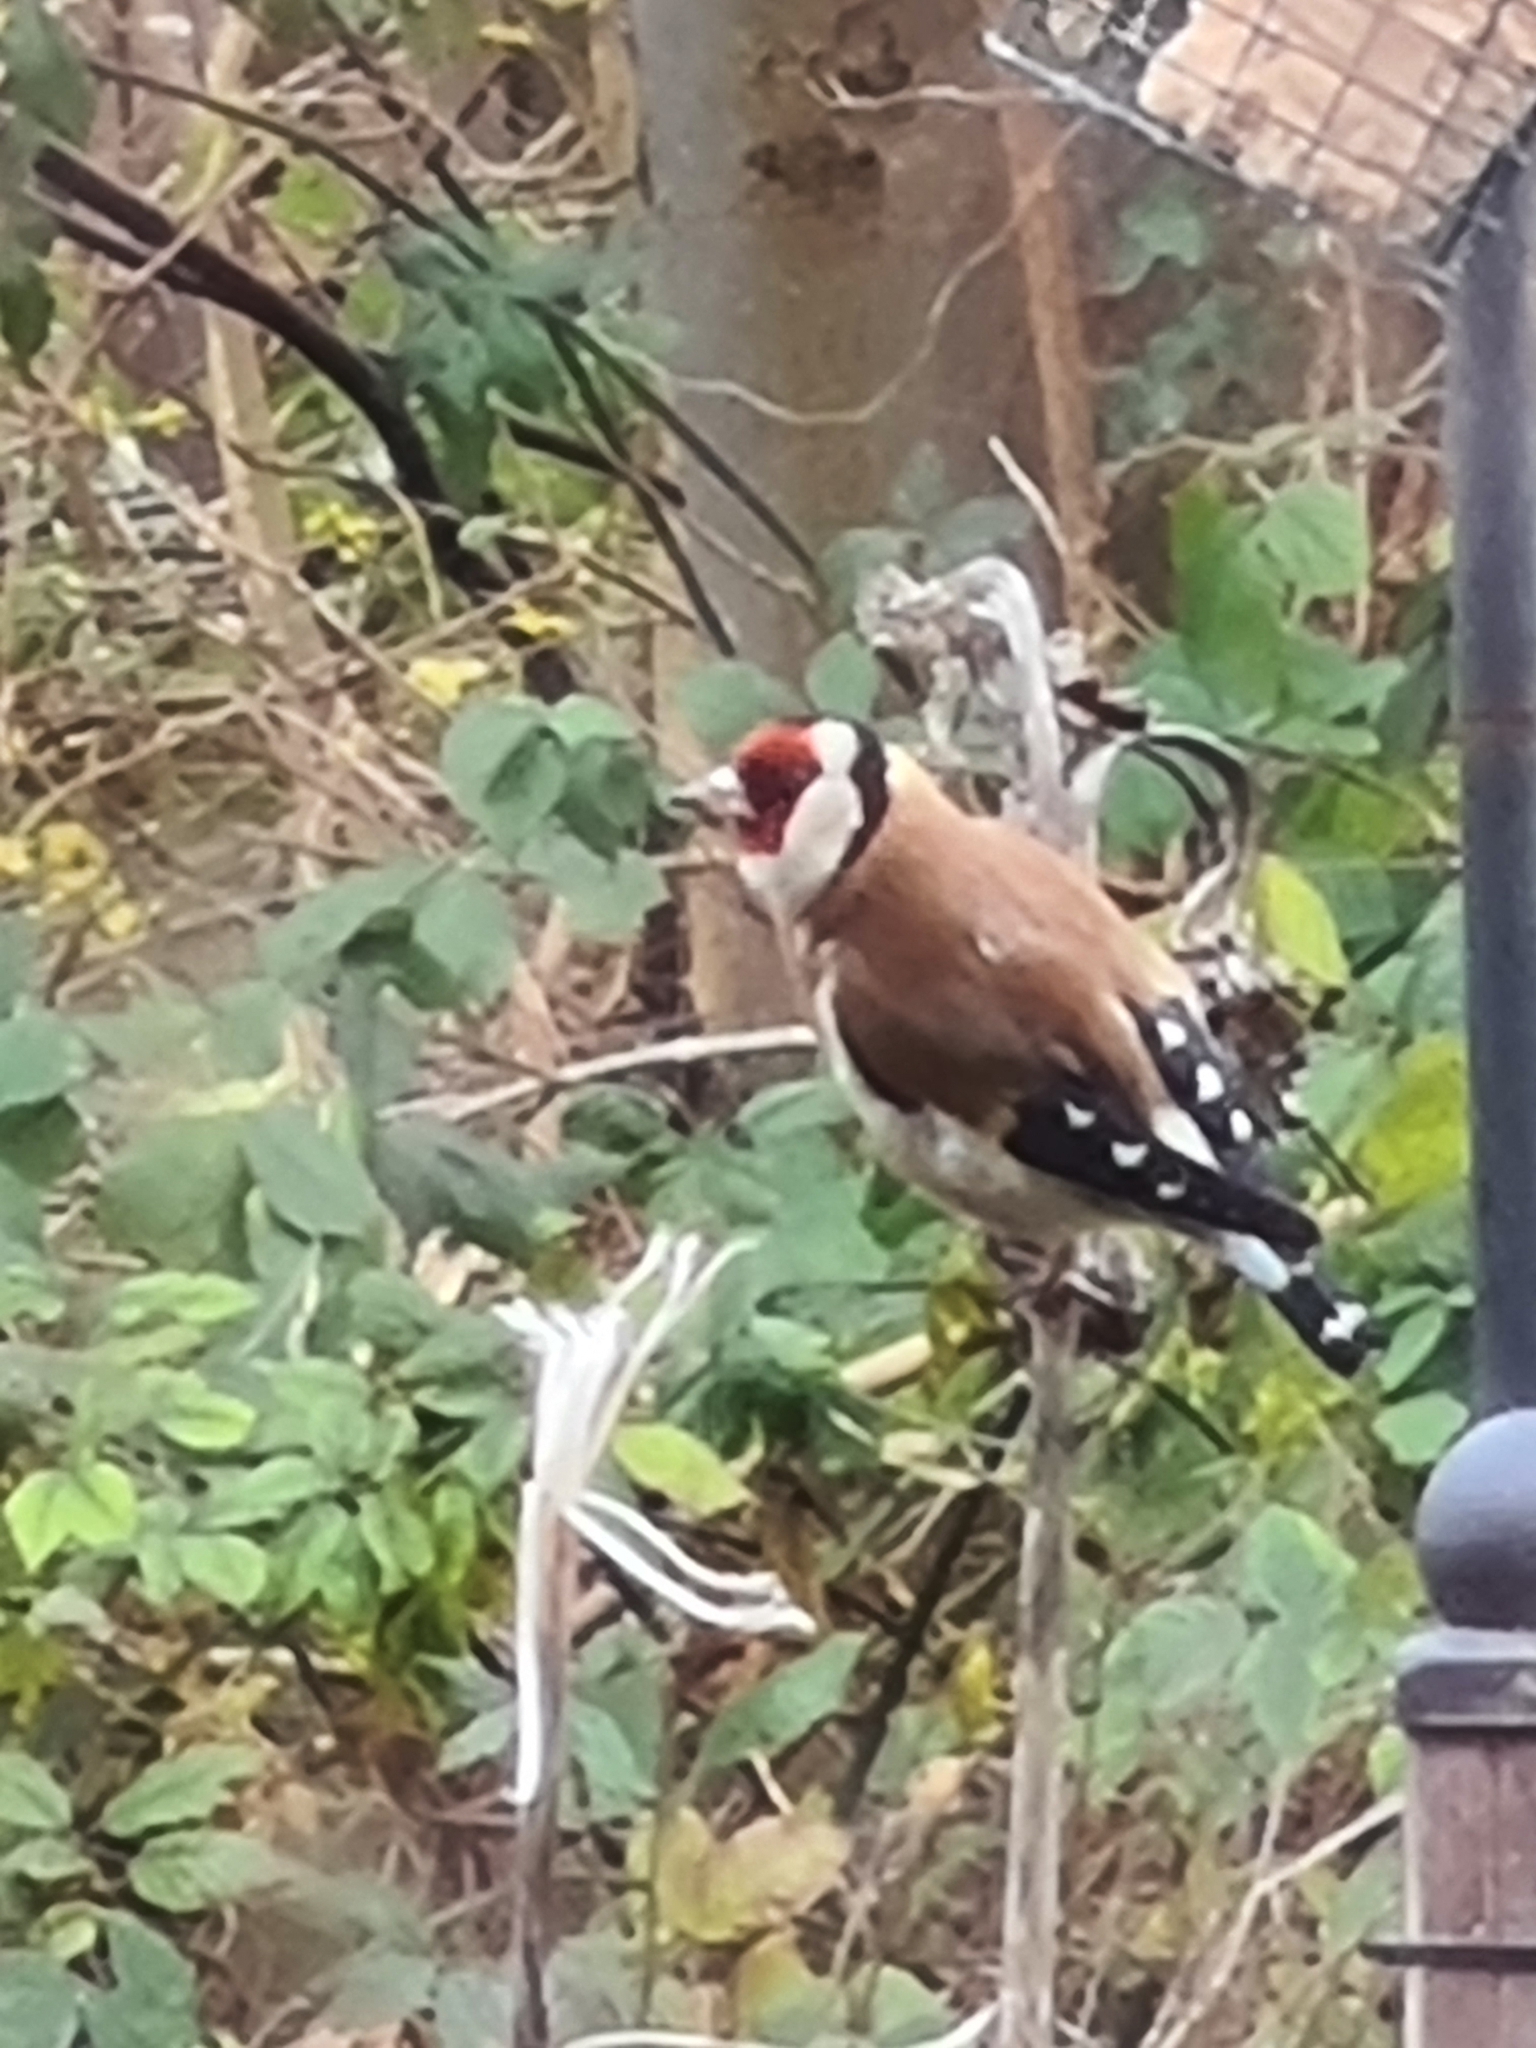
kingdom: Animalia
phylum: Chordata
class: Aves
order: Passeriformes
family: Fringillidae
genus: Carduelis
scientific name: Carduelis carduelis
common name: European goldfinch
